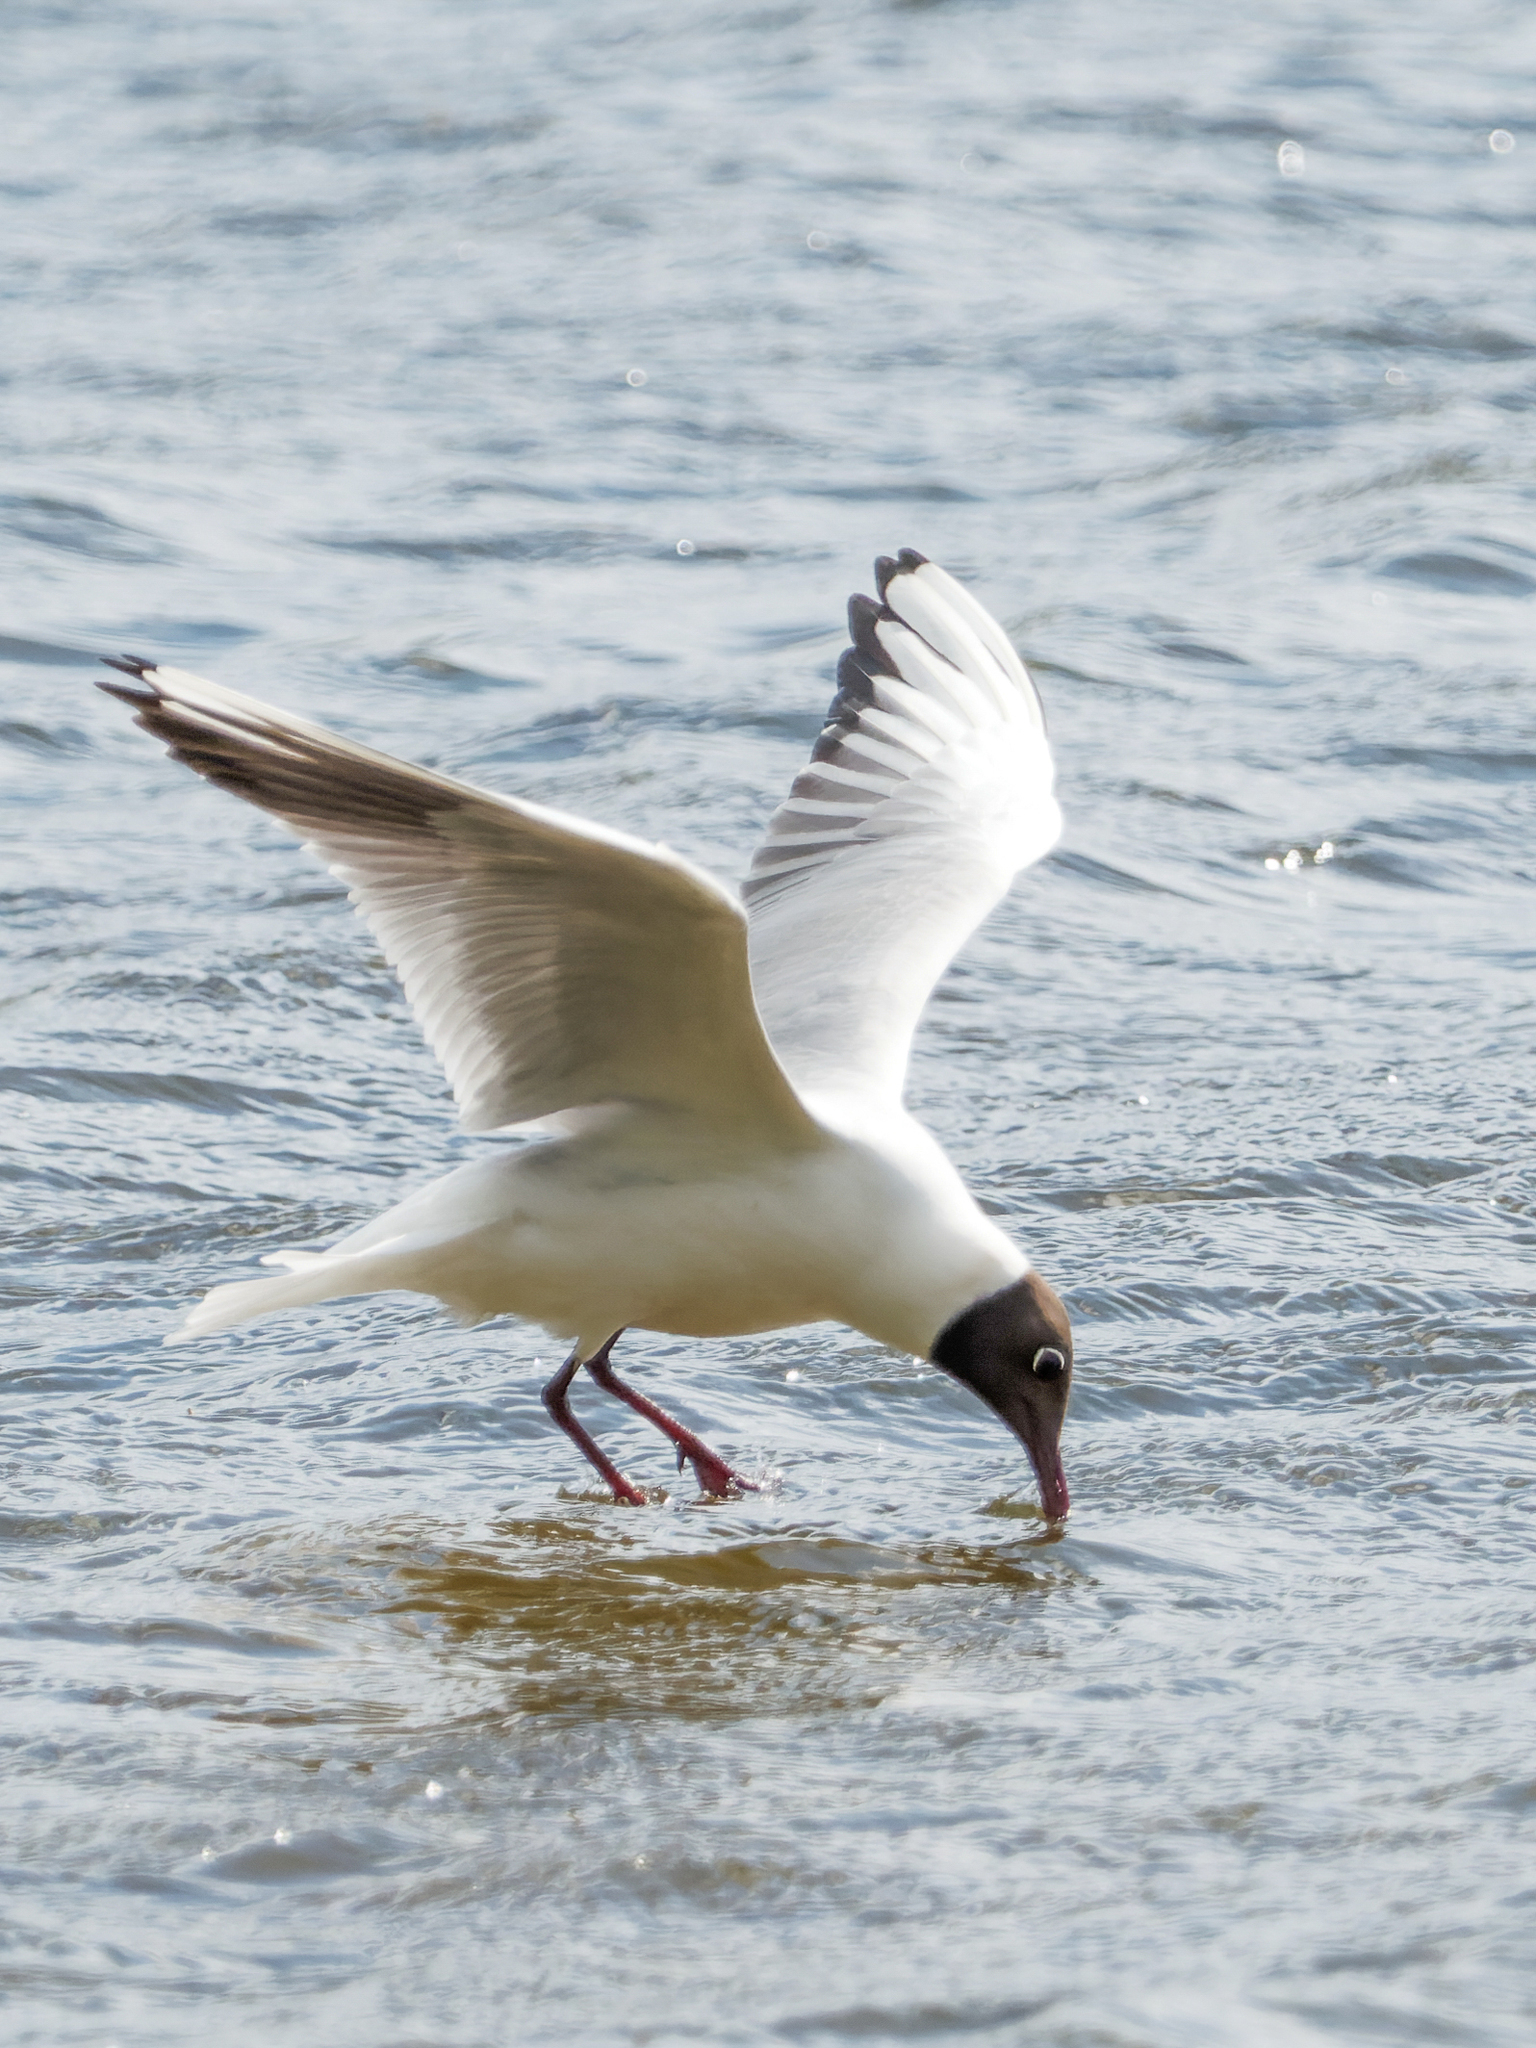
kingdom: Animalia
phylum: Chordata
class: Aves
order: Charadriiformes
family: Laridae
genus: Chroicocephalus
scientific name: Chroicocephalus ridibundus
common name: Black-headed gull
